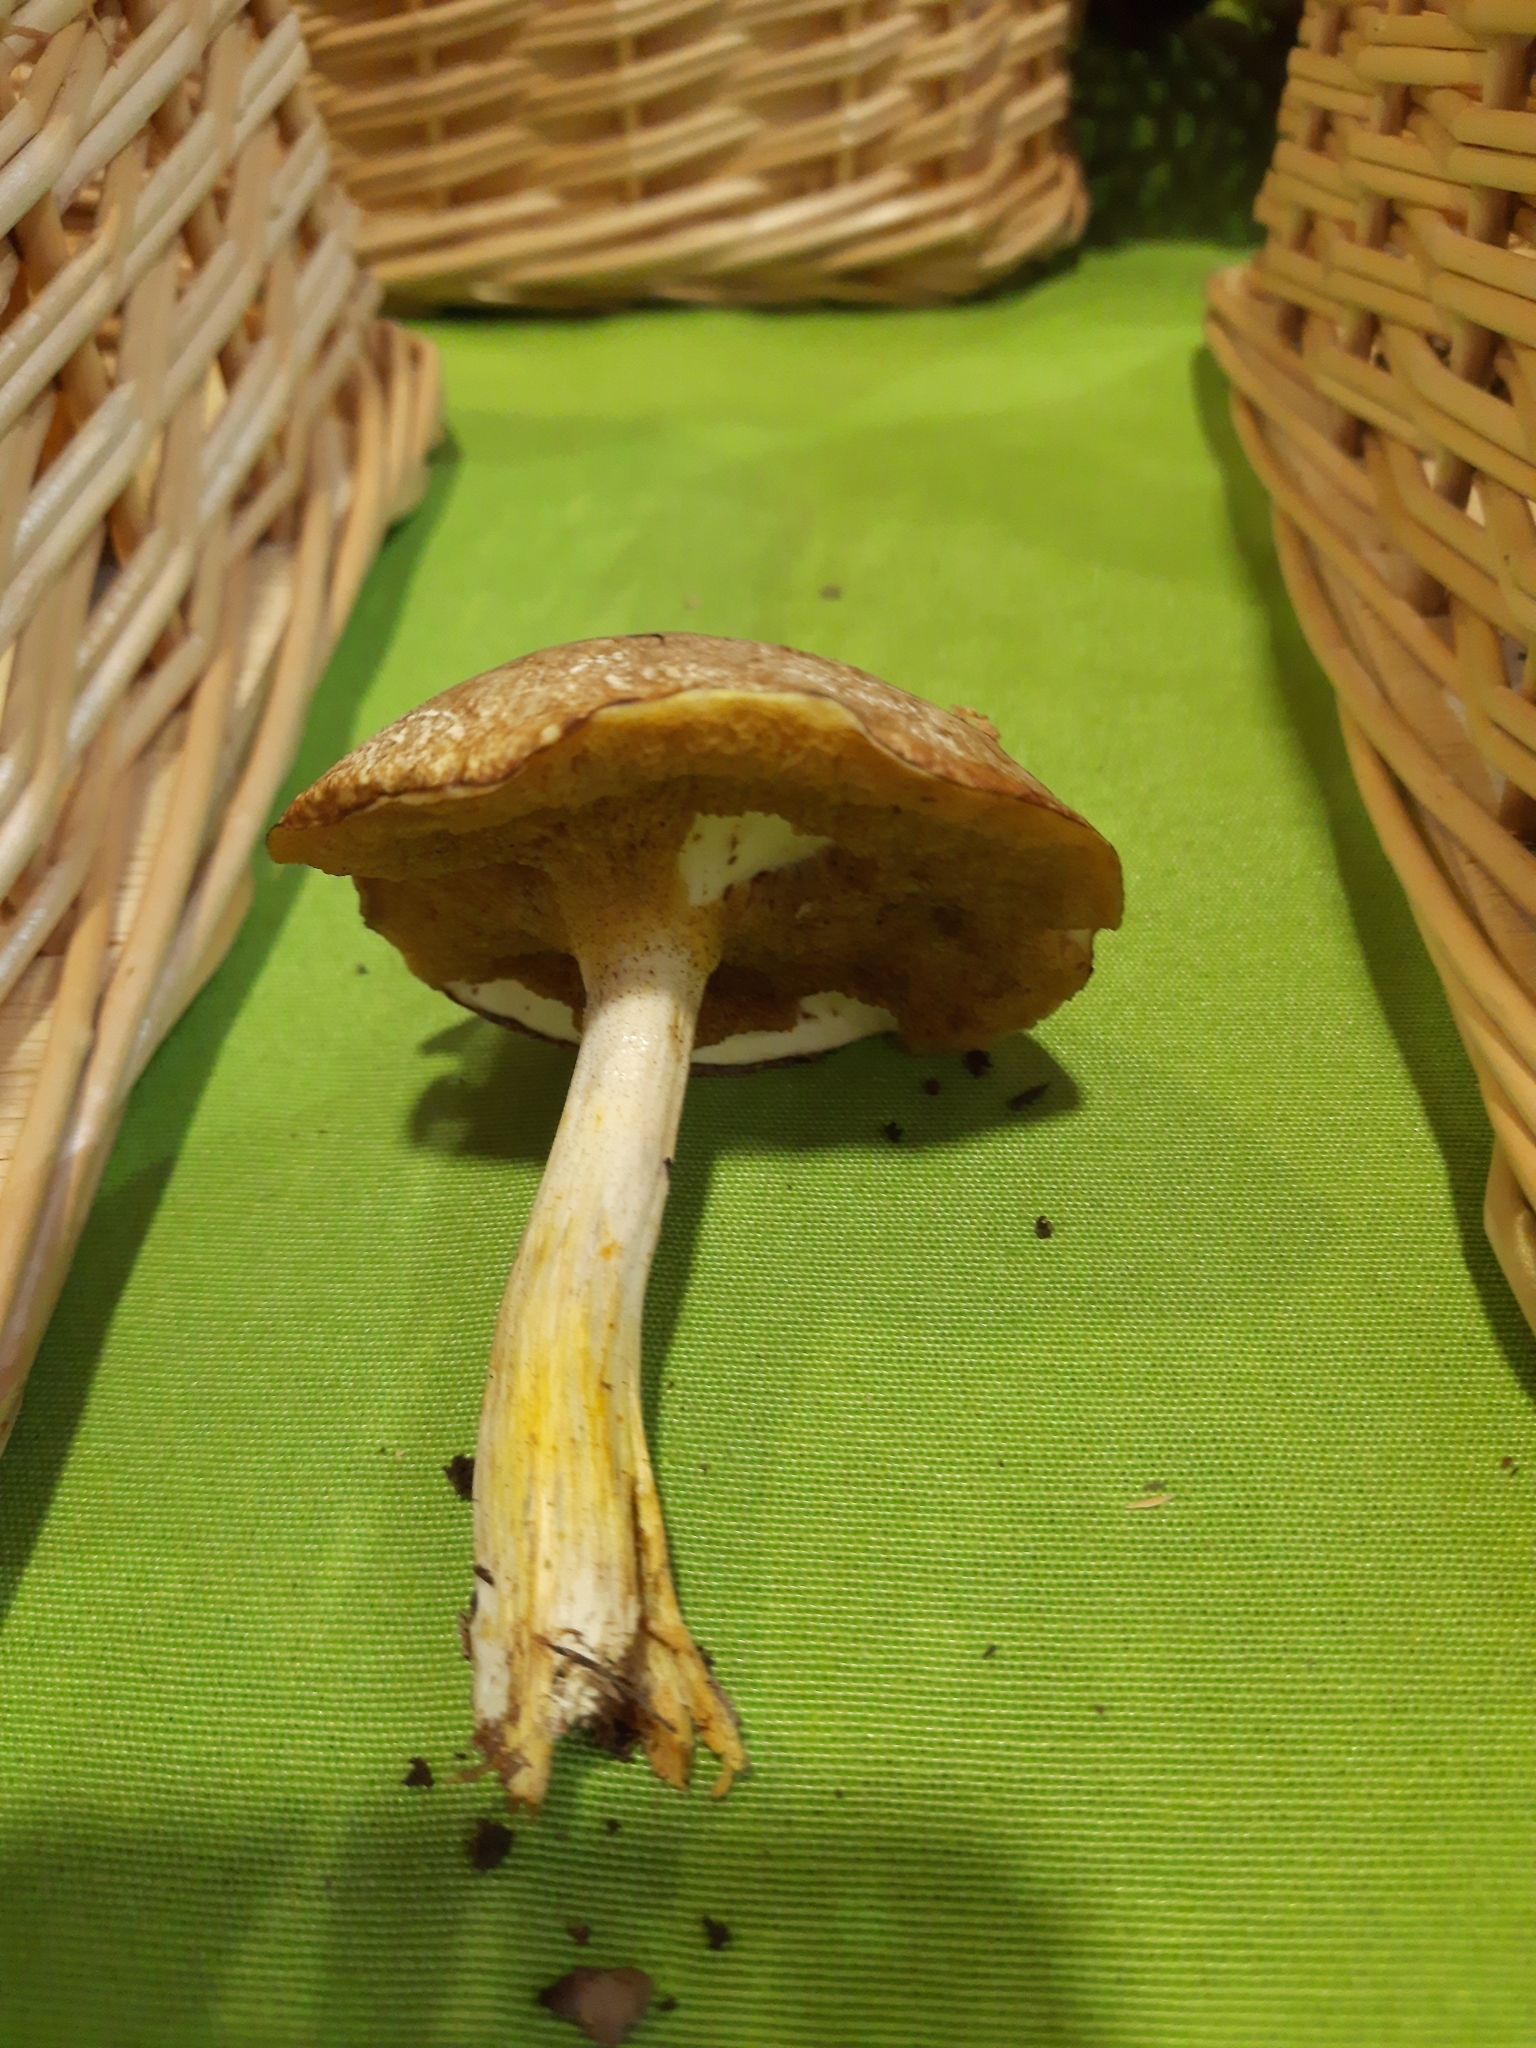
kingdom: Fungi
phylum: Basidiomycota
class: Agaricomycetes
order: Boletales
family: Suillaceae
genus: Suillus
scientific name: Suillus placidus
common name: Slippery white bolete
